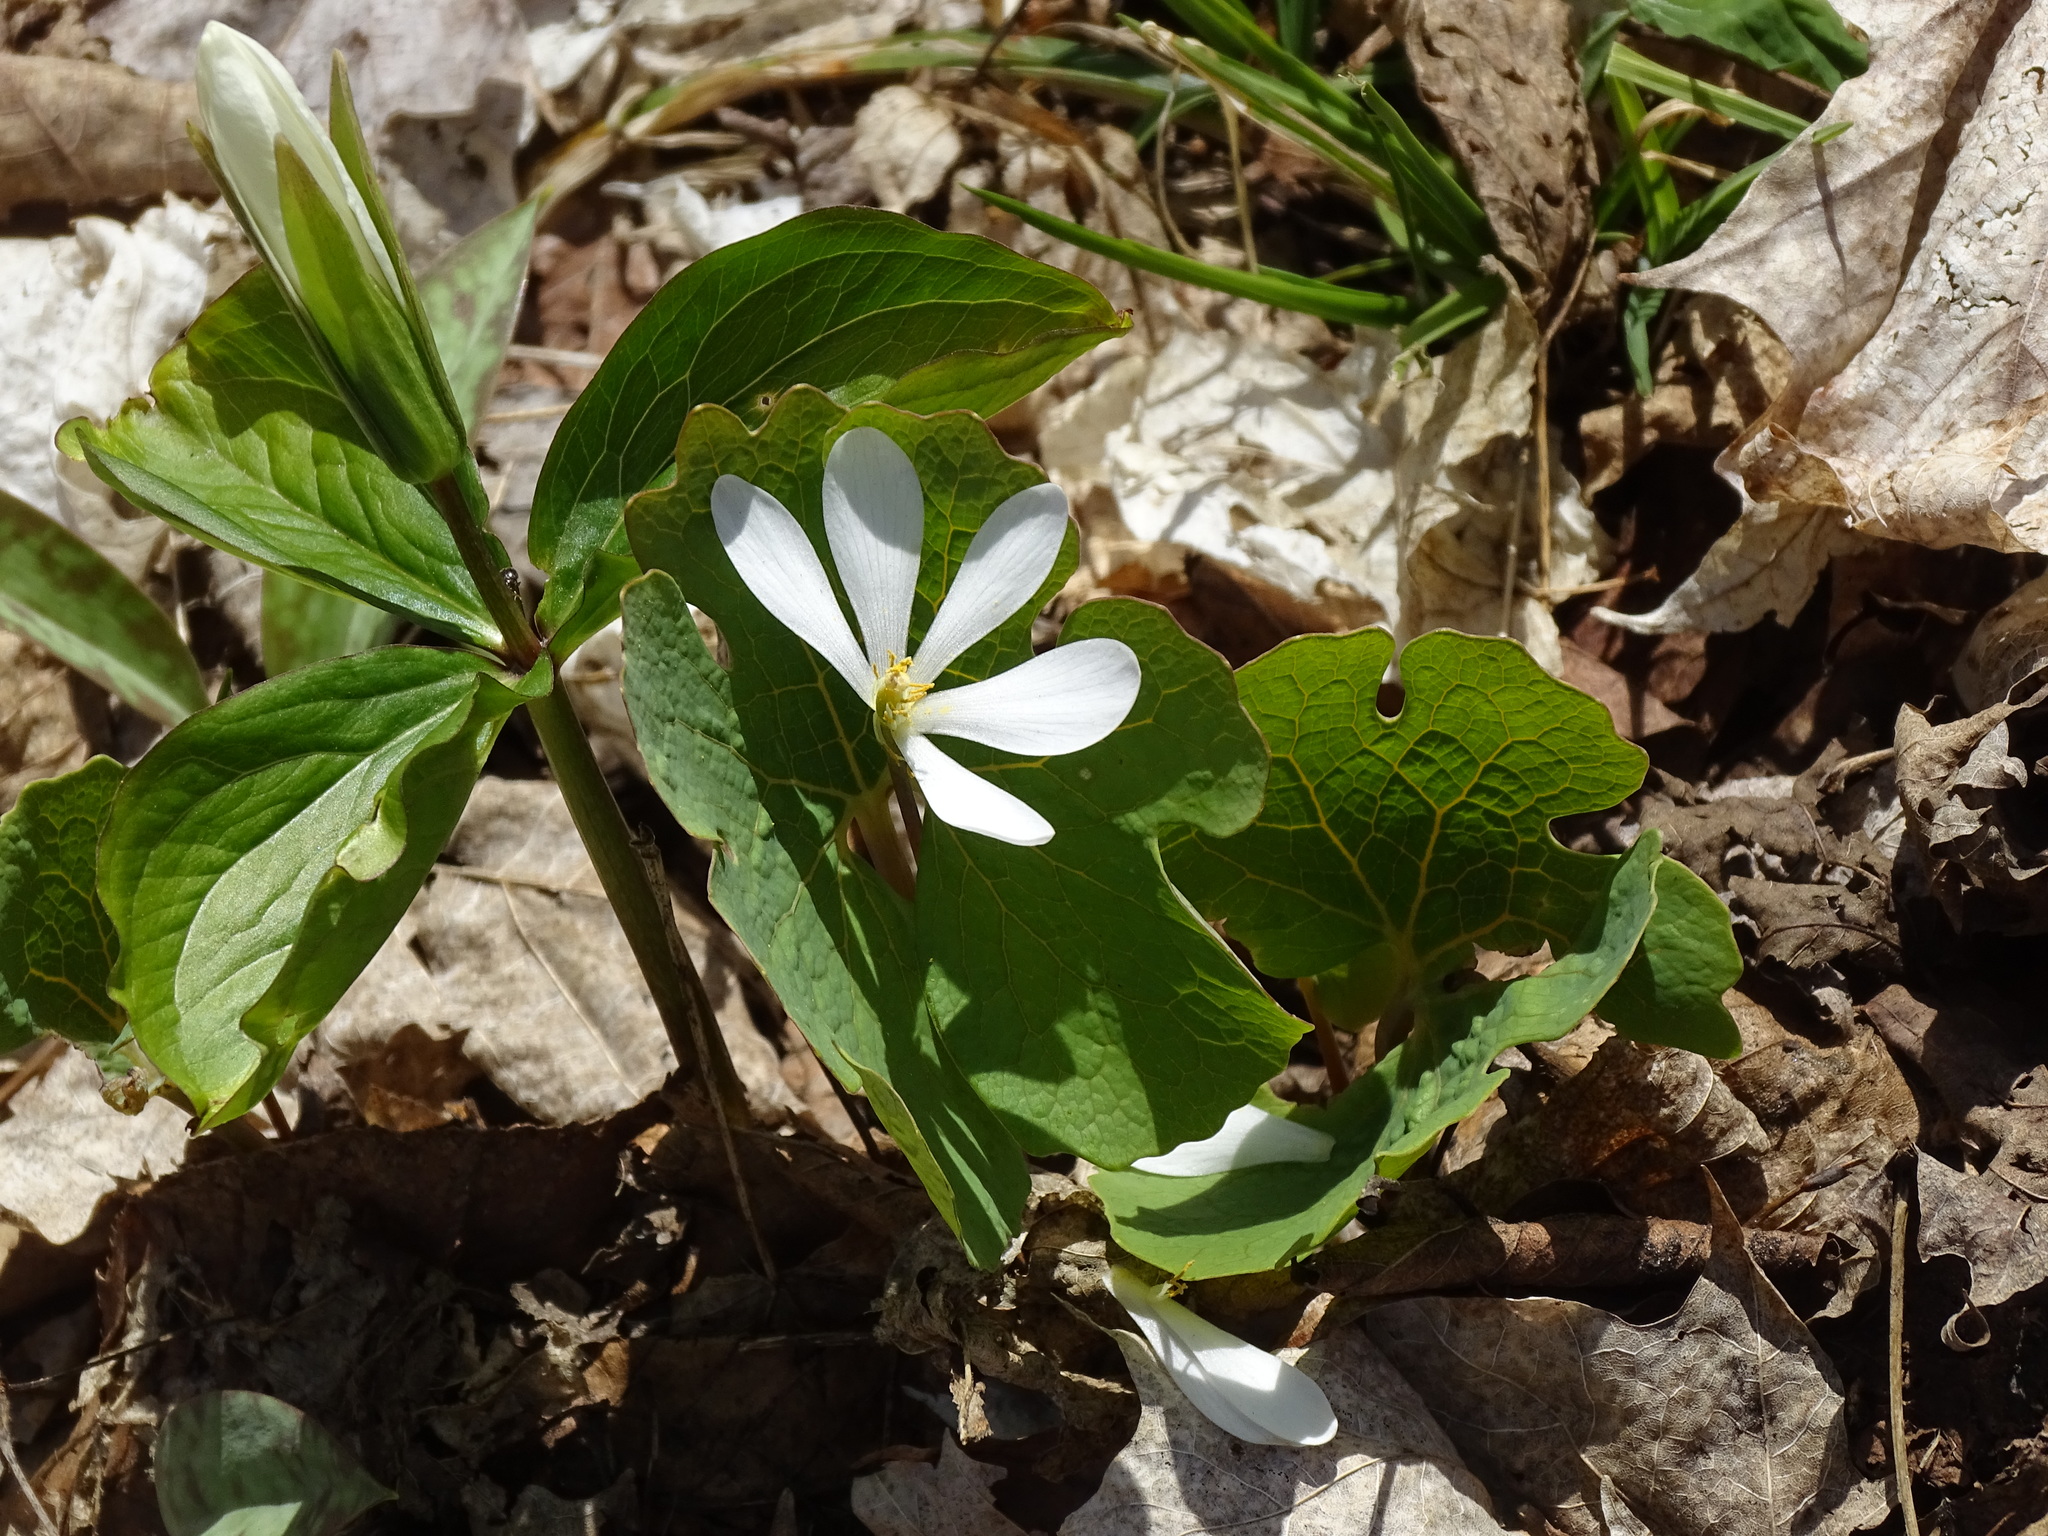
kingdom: Plantae
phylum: Tracheophyta
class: Magnoliopsida
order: Ranunculales
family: Papaveraceae
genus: Sanguinaria
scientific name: Sanguinaria canadensis
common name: Bloodroot
